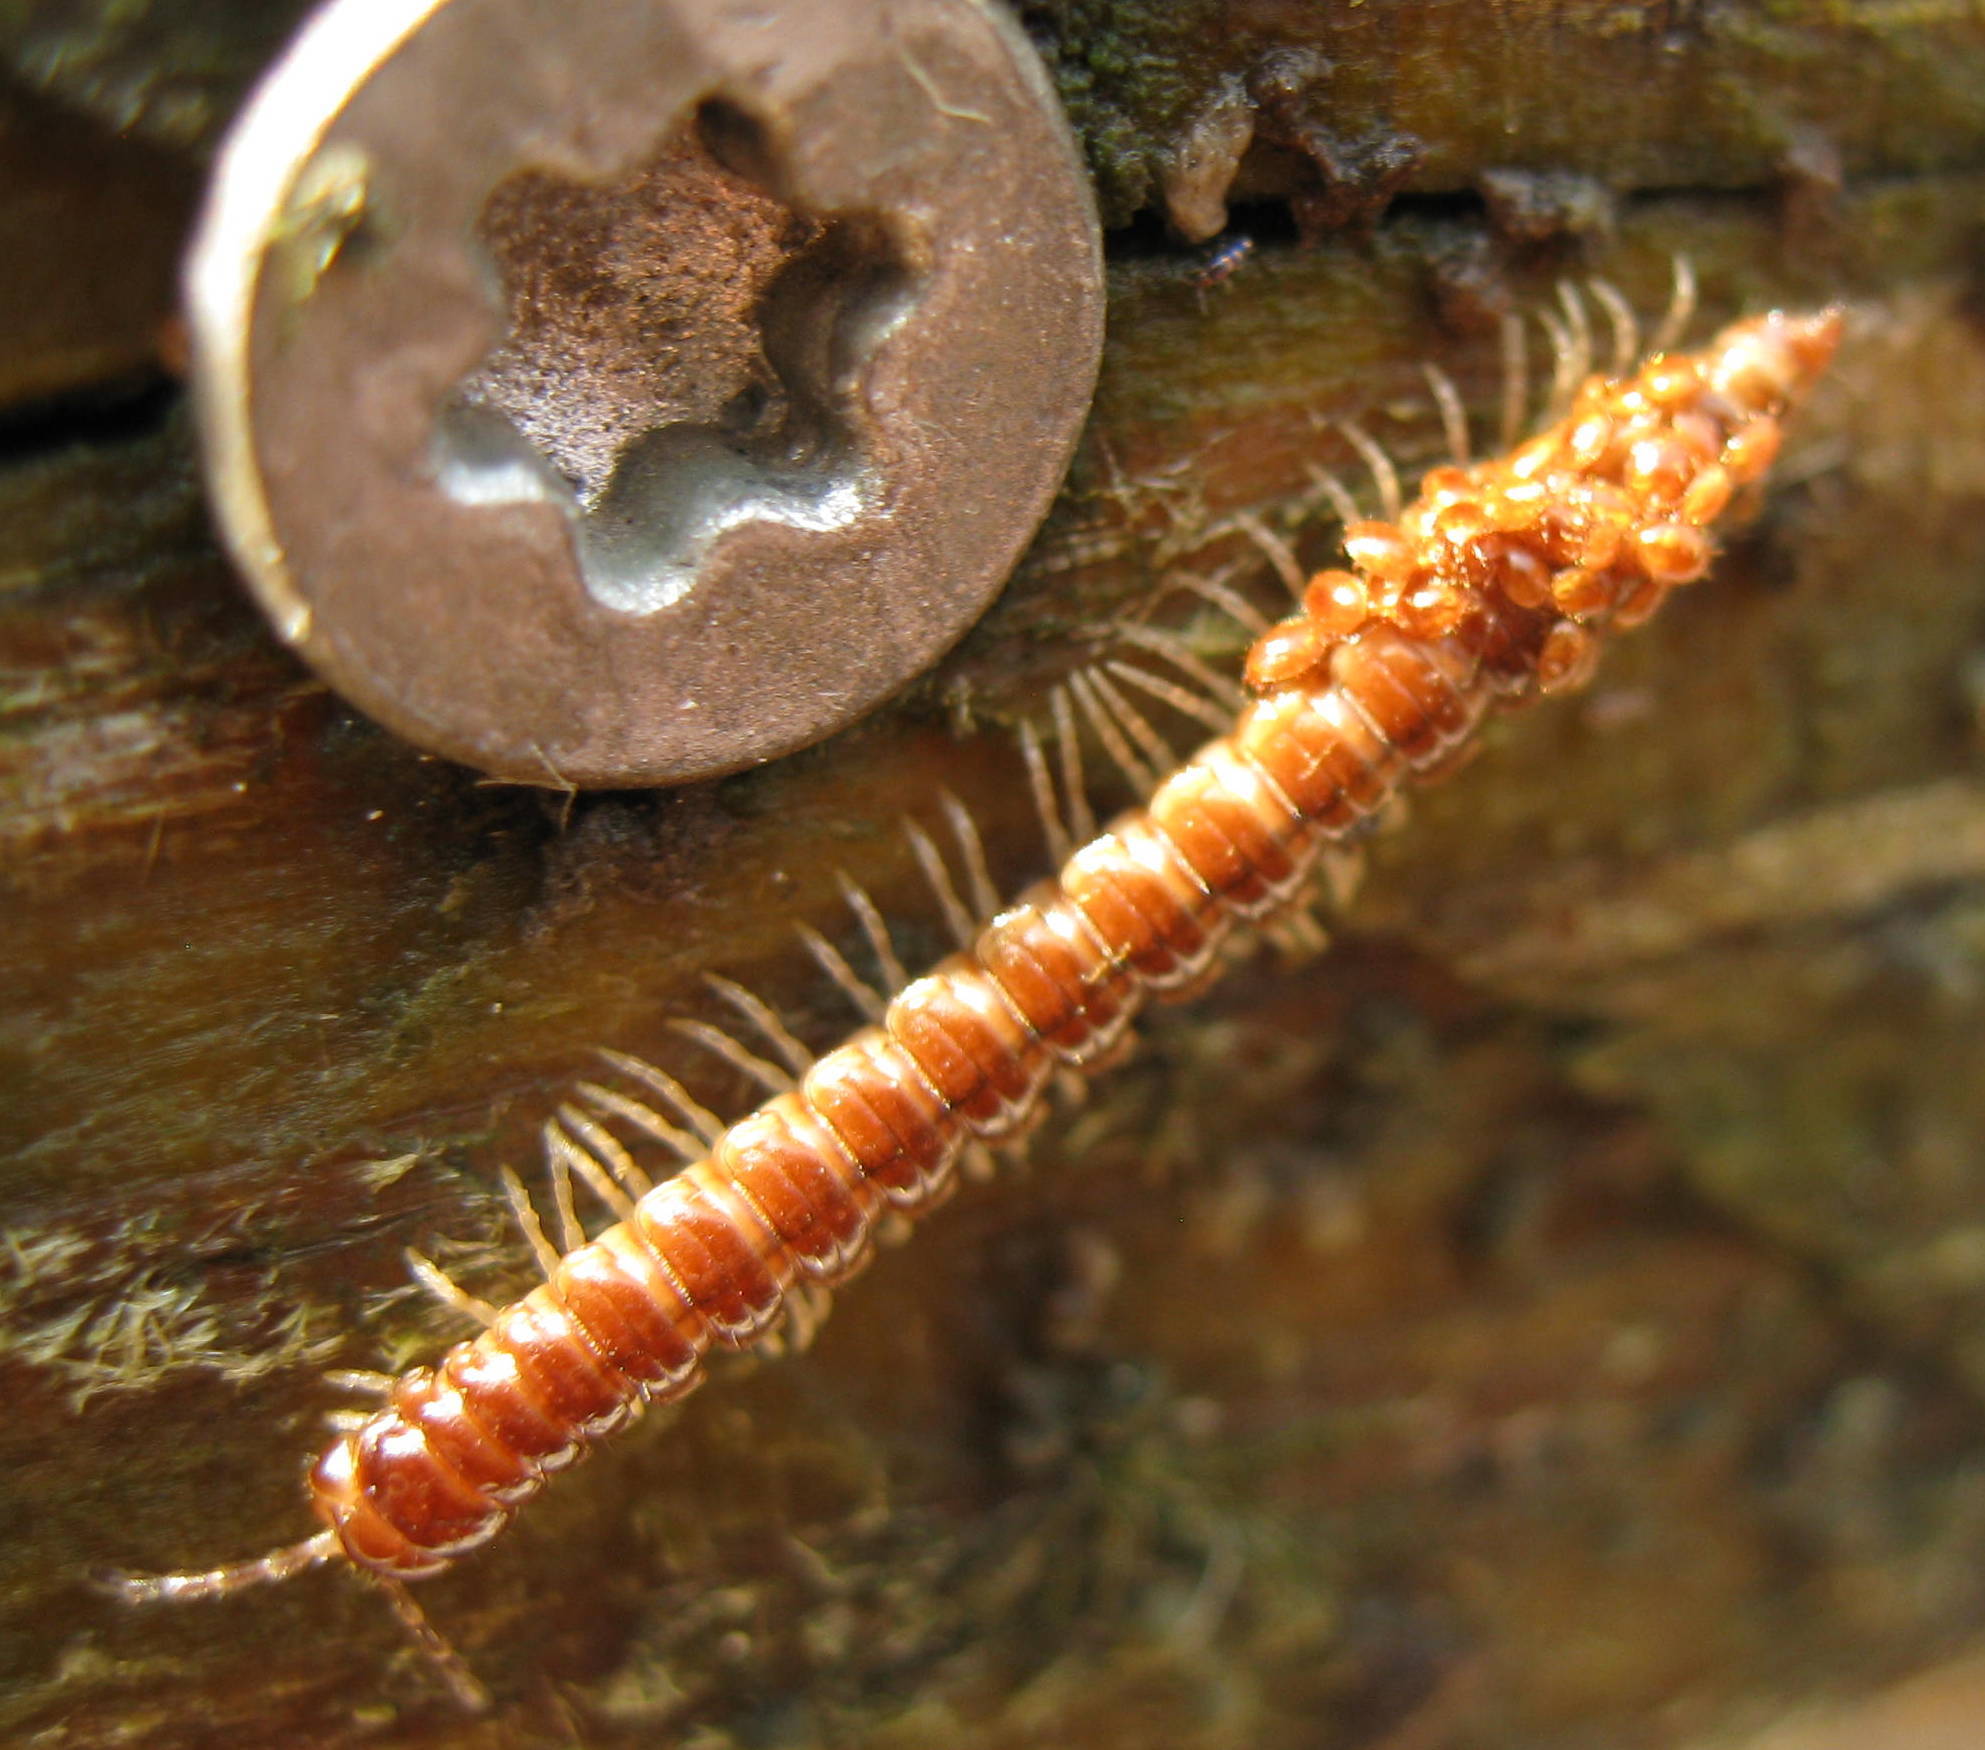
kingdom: Animalia
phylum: Arthropoda
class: Diplopoda
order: Polydesmida
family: Paradoxosomatidae
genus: Oxidus
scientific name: Oxidus gracilis
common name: Greenhouse millipede
